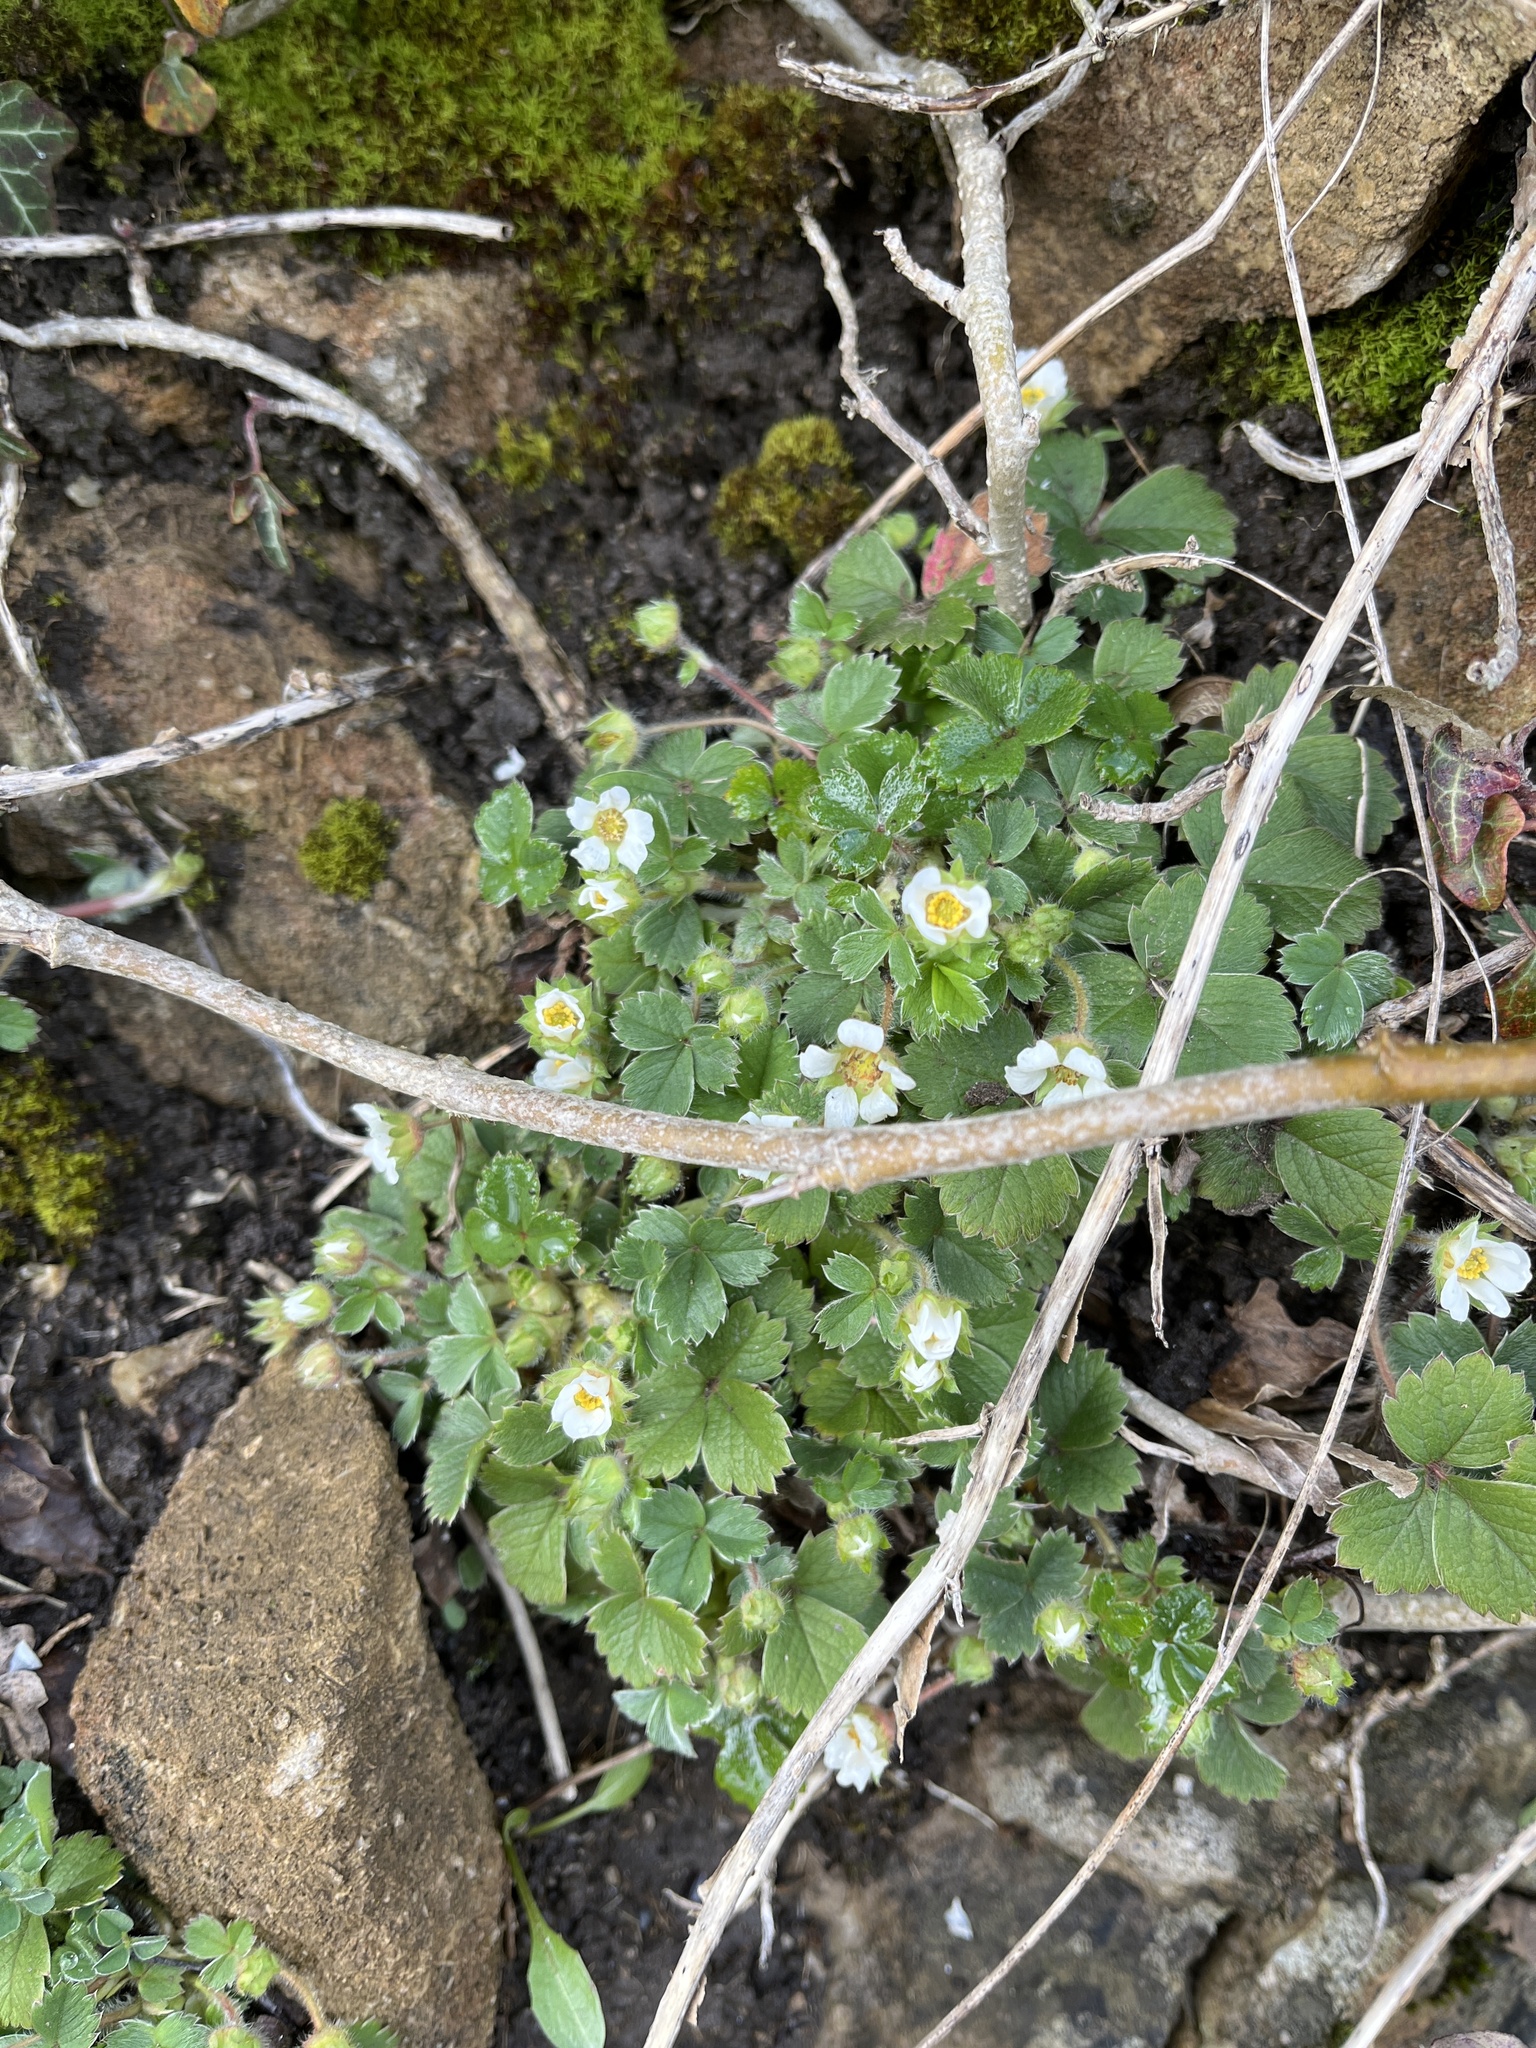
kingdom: Plantae
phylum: Tracheophyta
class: Magnoliopsida
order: Rosales
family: Rosaceae
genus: Potentilla
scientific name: Potentilla sterilis
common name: Barren strawberry
